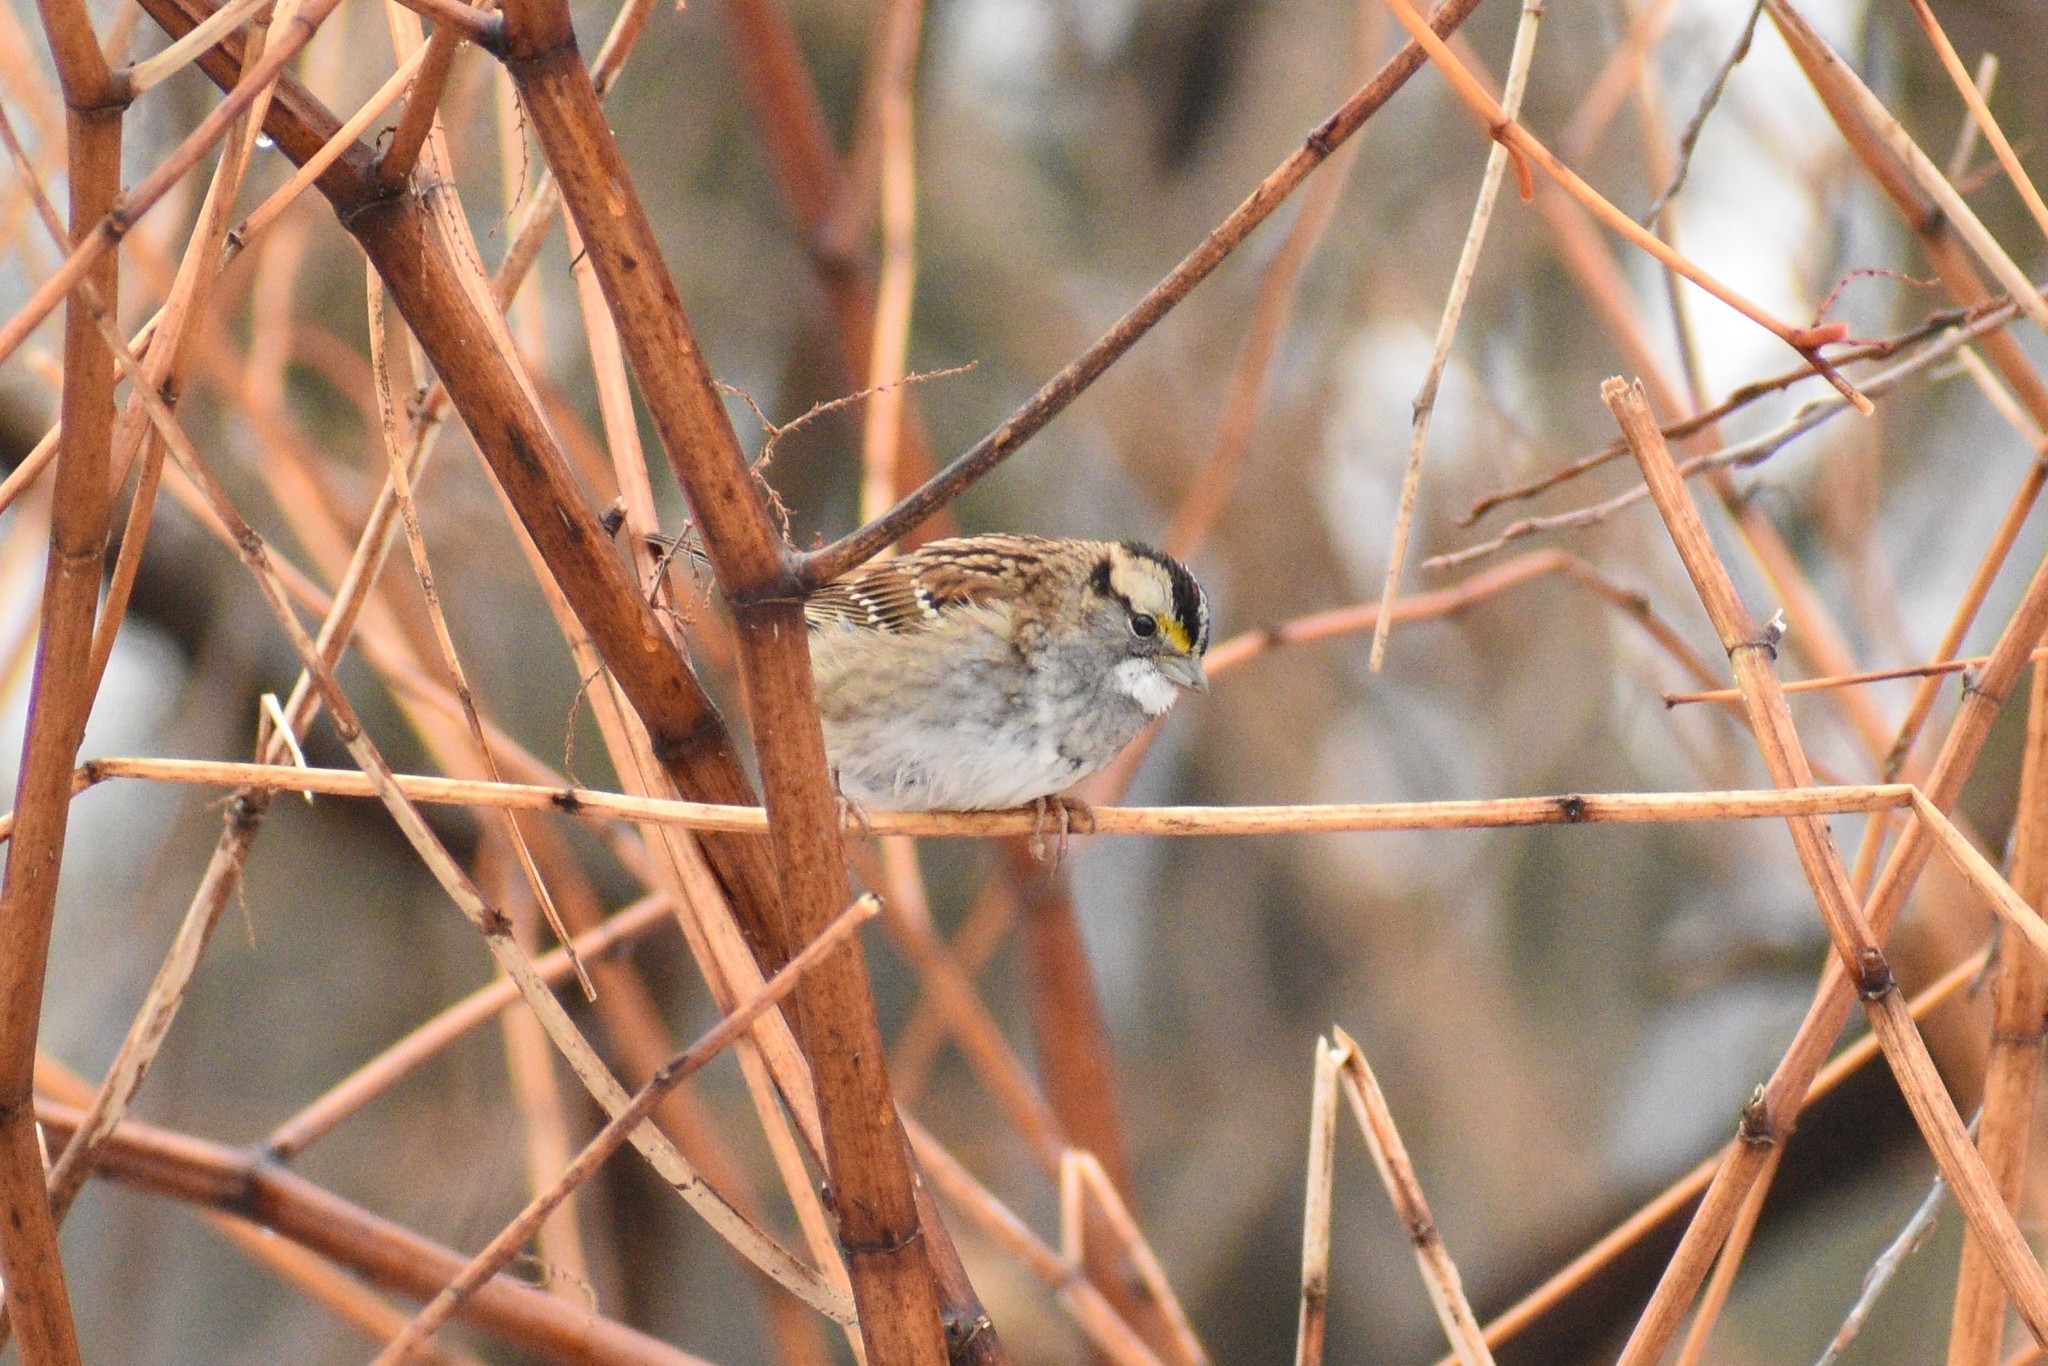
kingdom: Animalia
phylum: Chordata
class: Aves
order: Passeriformes
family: Passerellidae
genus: Zonotrichia
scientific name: Zonotrichia albicollis
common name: White-throated sparrow
